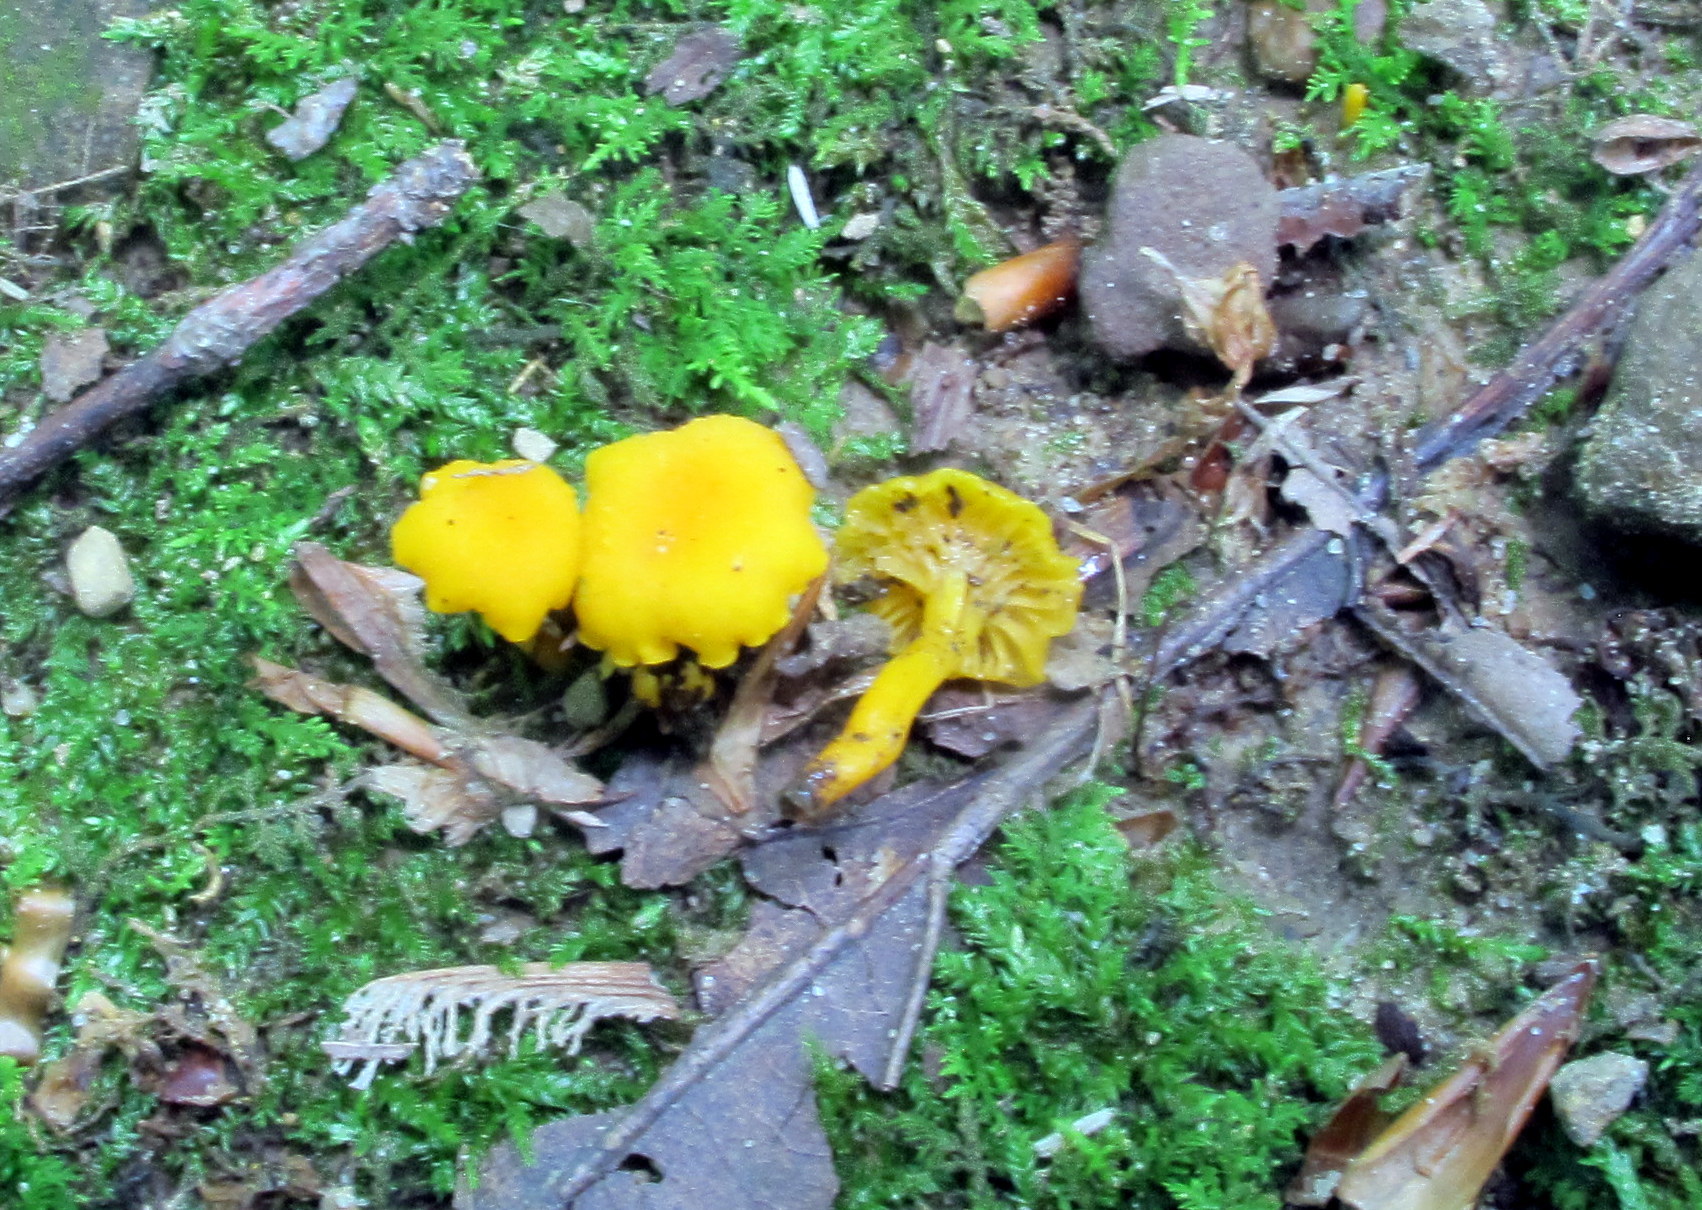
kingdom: Fungi
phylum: Basidiomycota
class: Agaricomycetes
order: Cantharellales
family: Hydnaceae
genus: Cantharellus
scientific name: Cantharellus minor
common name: Small chanterelle
